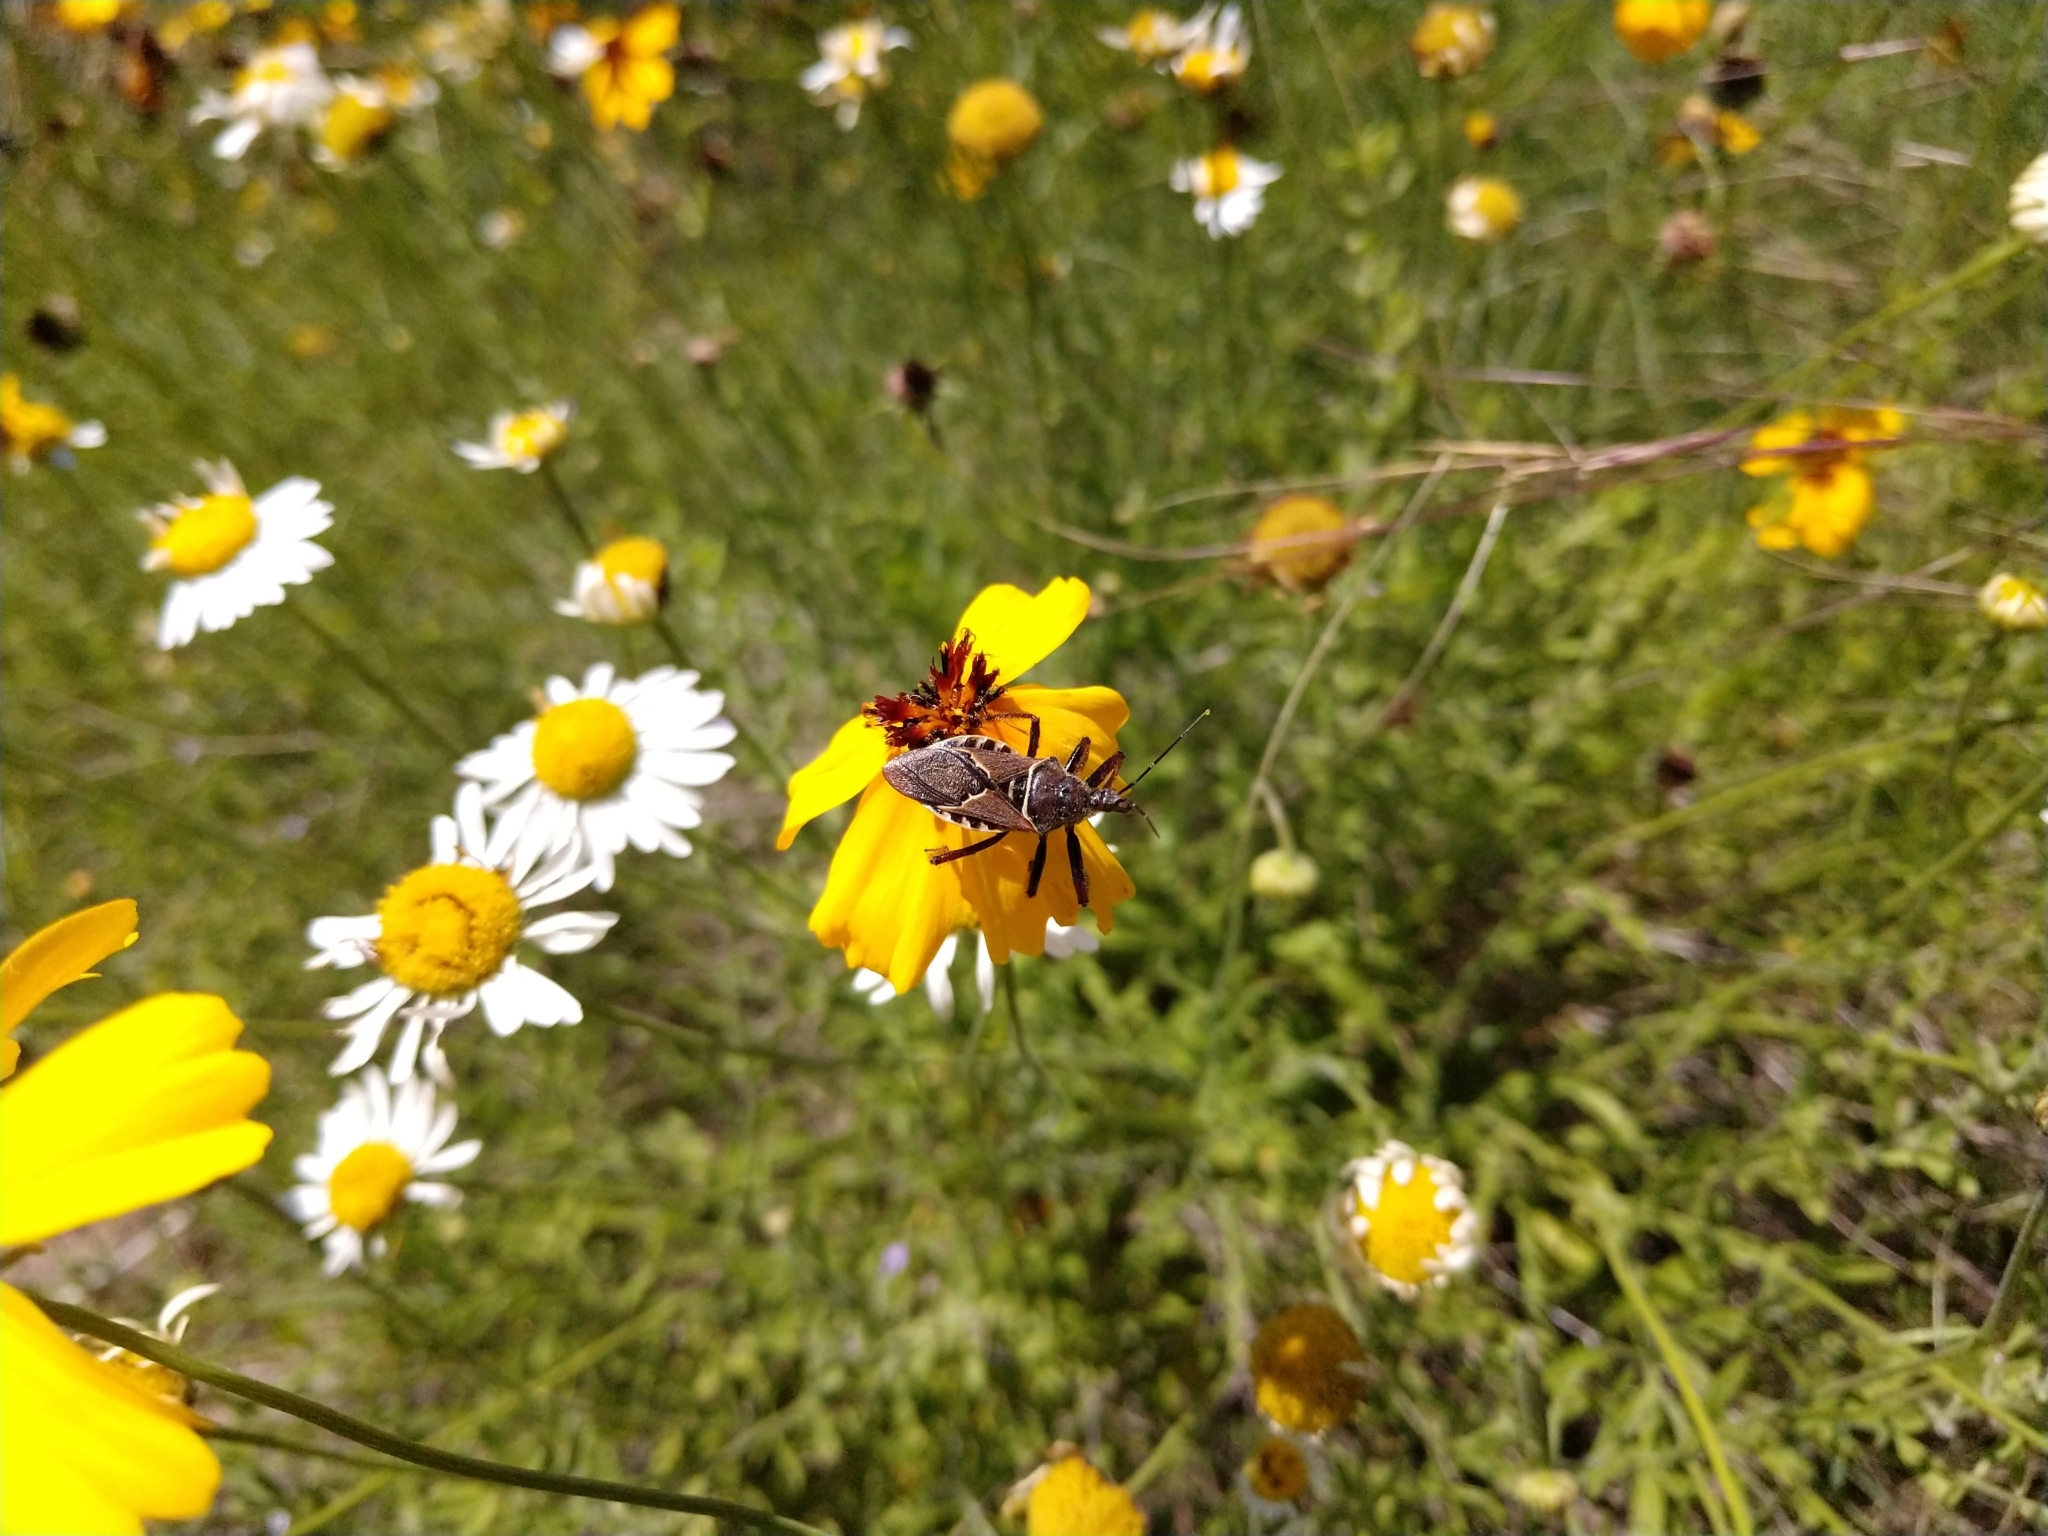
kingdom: Animalia
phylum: Arthropoda
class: Insecta
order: Hemiptera
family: Reduviidae
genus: Apiomerus
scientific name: Apiomerus spissipes
